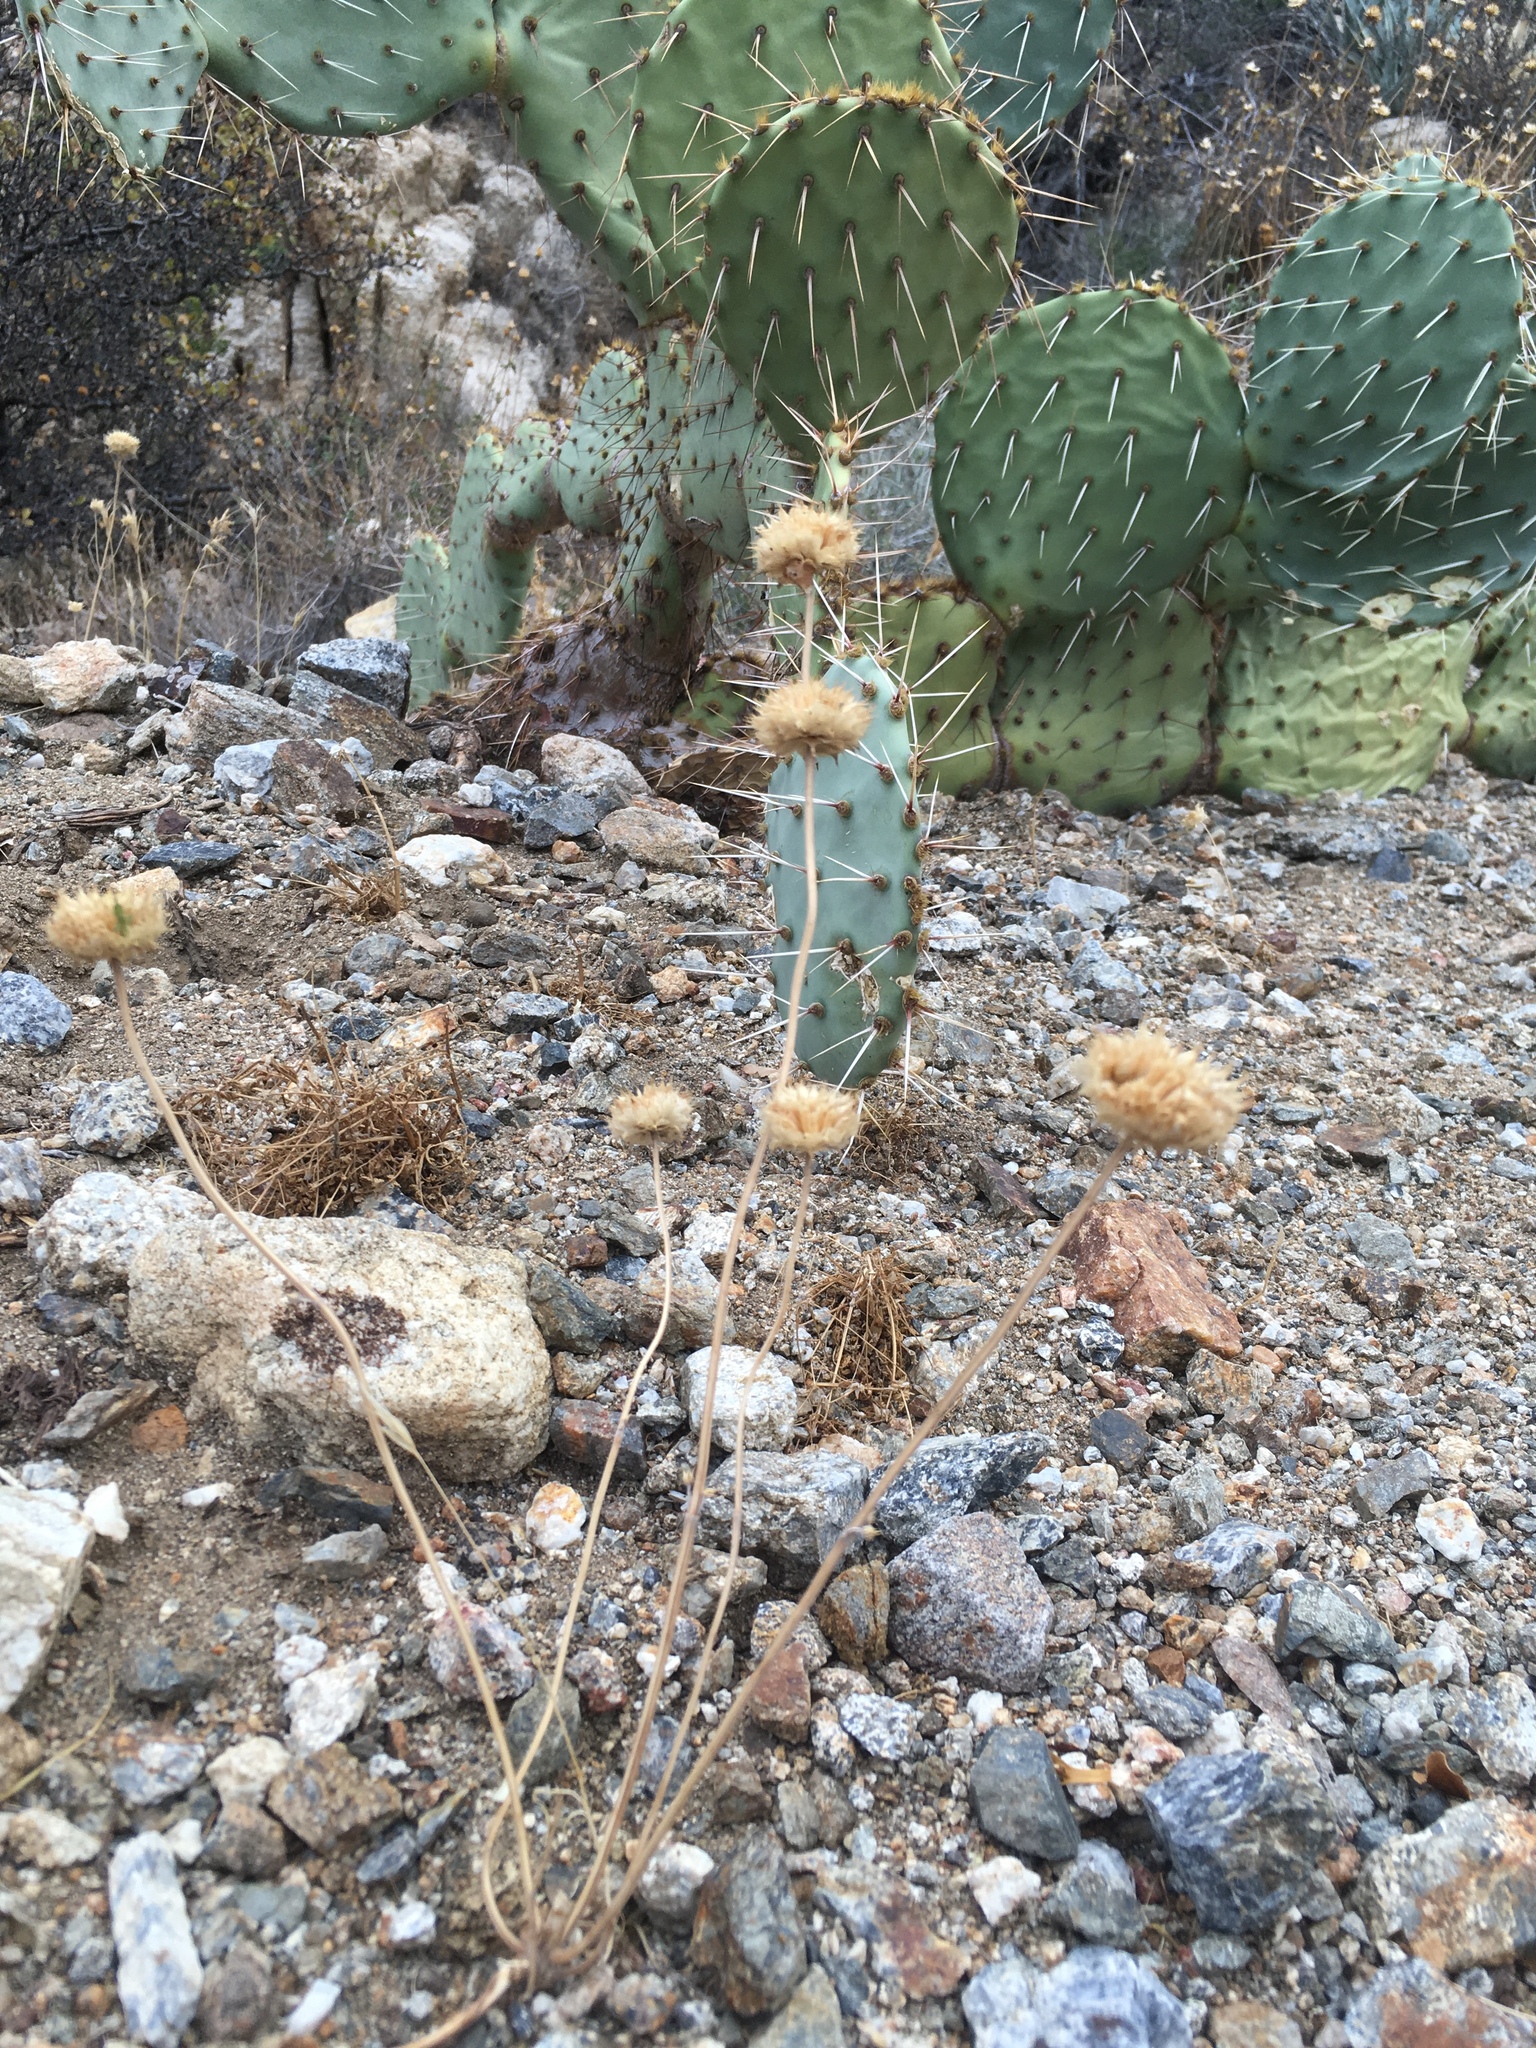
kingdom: Plantae
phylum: Tracheophyta
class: Magnoliopsida
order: Lamiales
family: Lamiaceae
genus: Salvia
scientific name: Salvia columbariae
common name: Chia
